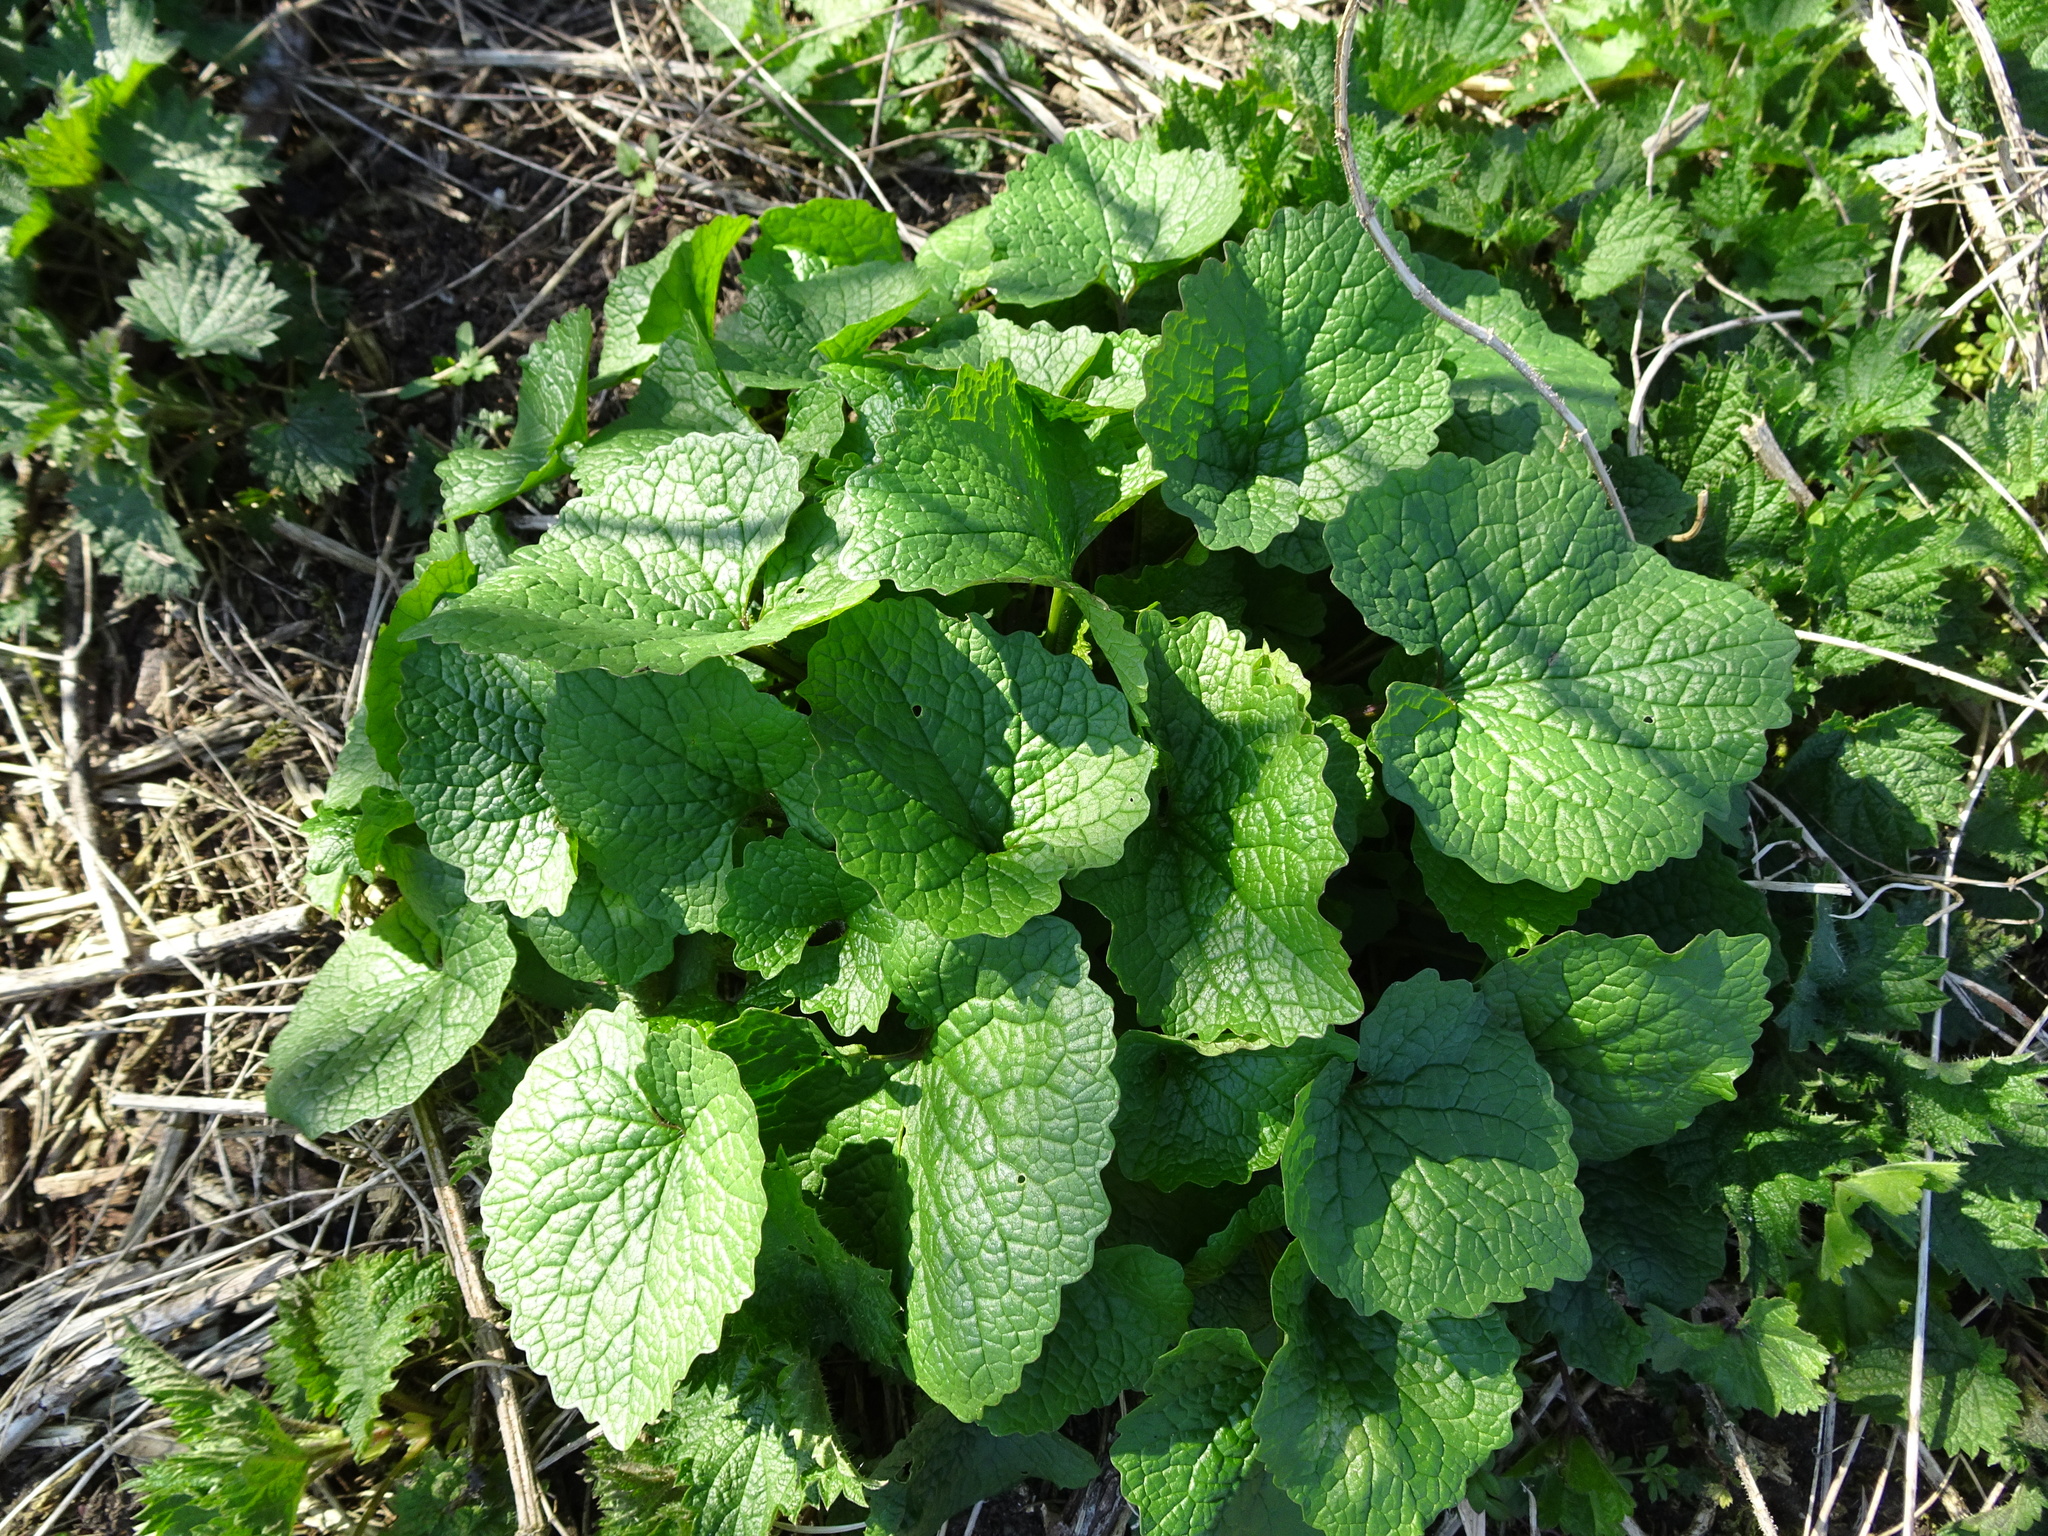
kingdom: Plantae
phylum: Tracheophyta
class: Magnoliopsida
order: Brassicales
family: Brassicaceae
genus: Alliaria
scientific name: Alliaria petiolata
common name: Garlic mustard
